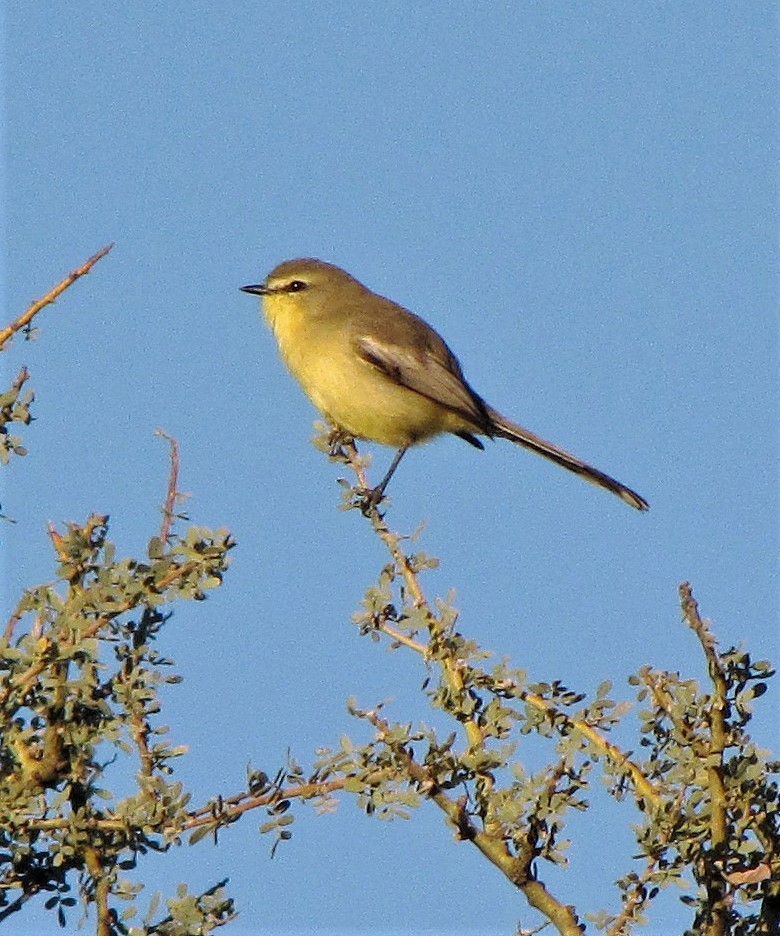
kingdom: Animalia
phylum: Chordata
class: Aves
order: Passeriformes
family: Tyrannidae
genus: Stigmatura
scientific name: Stigmatura budytoides
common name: Greater wagtail-tyrant
